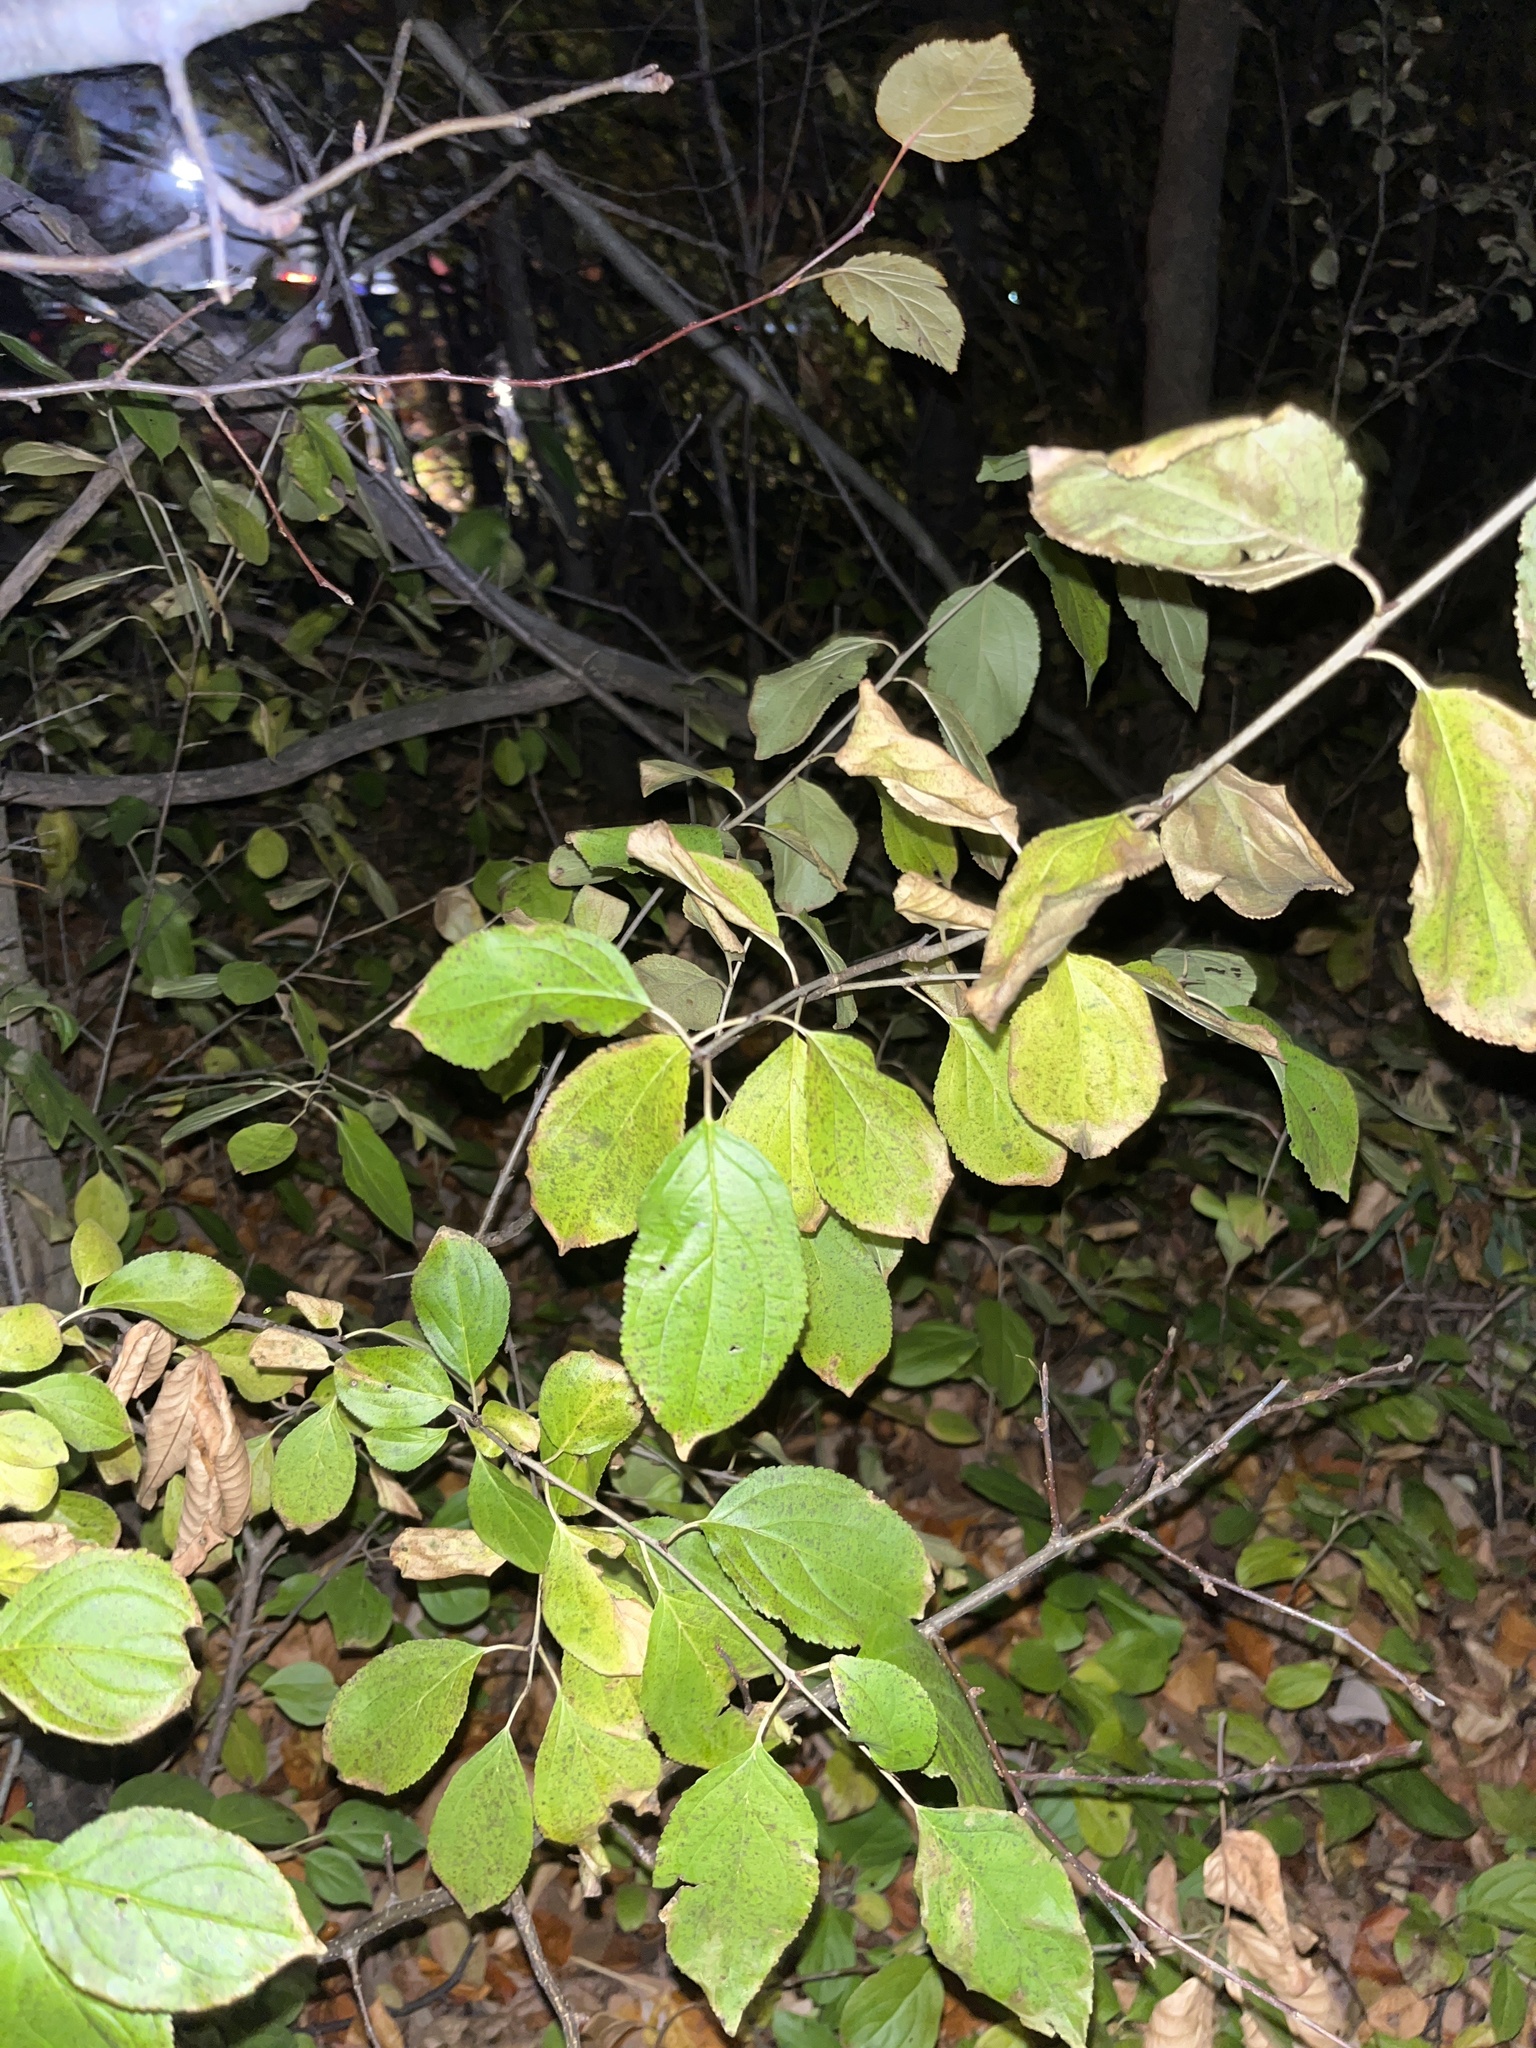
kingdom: Plantae
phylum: Tracheophyta
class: Magnoliopsida
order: Rosales
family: Rhamnaceae
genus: Rhamnus
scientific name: Rhamnus cathartica
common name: Common buckthorn
